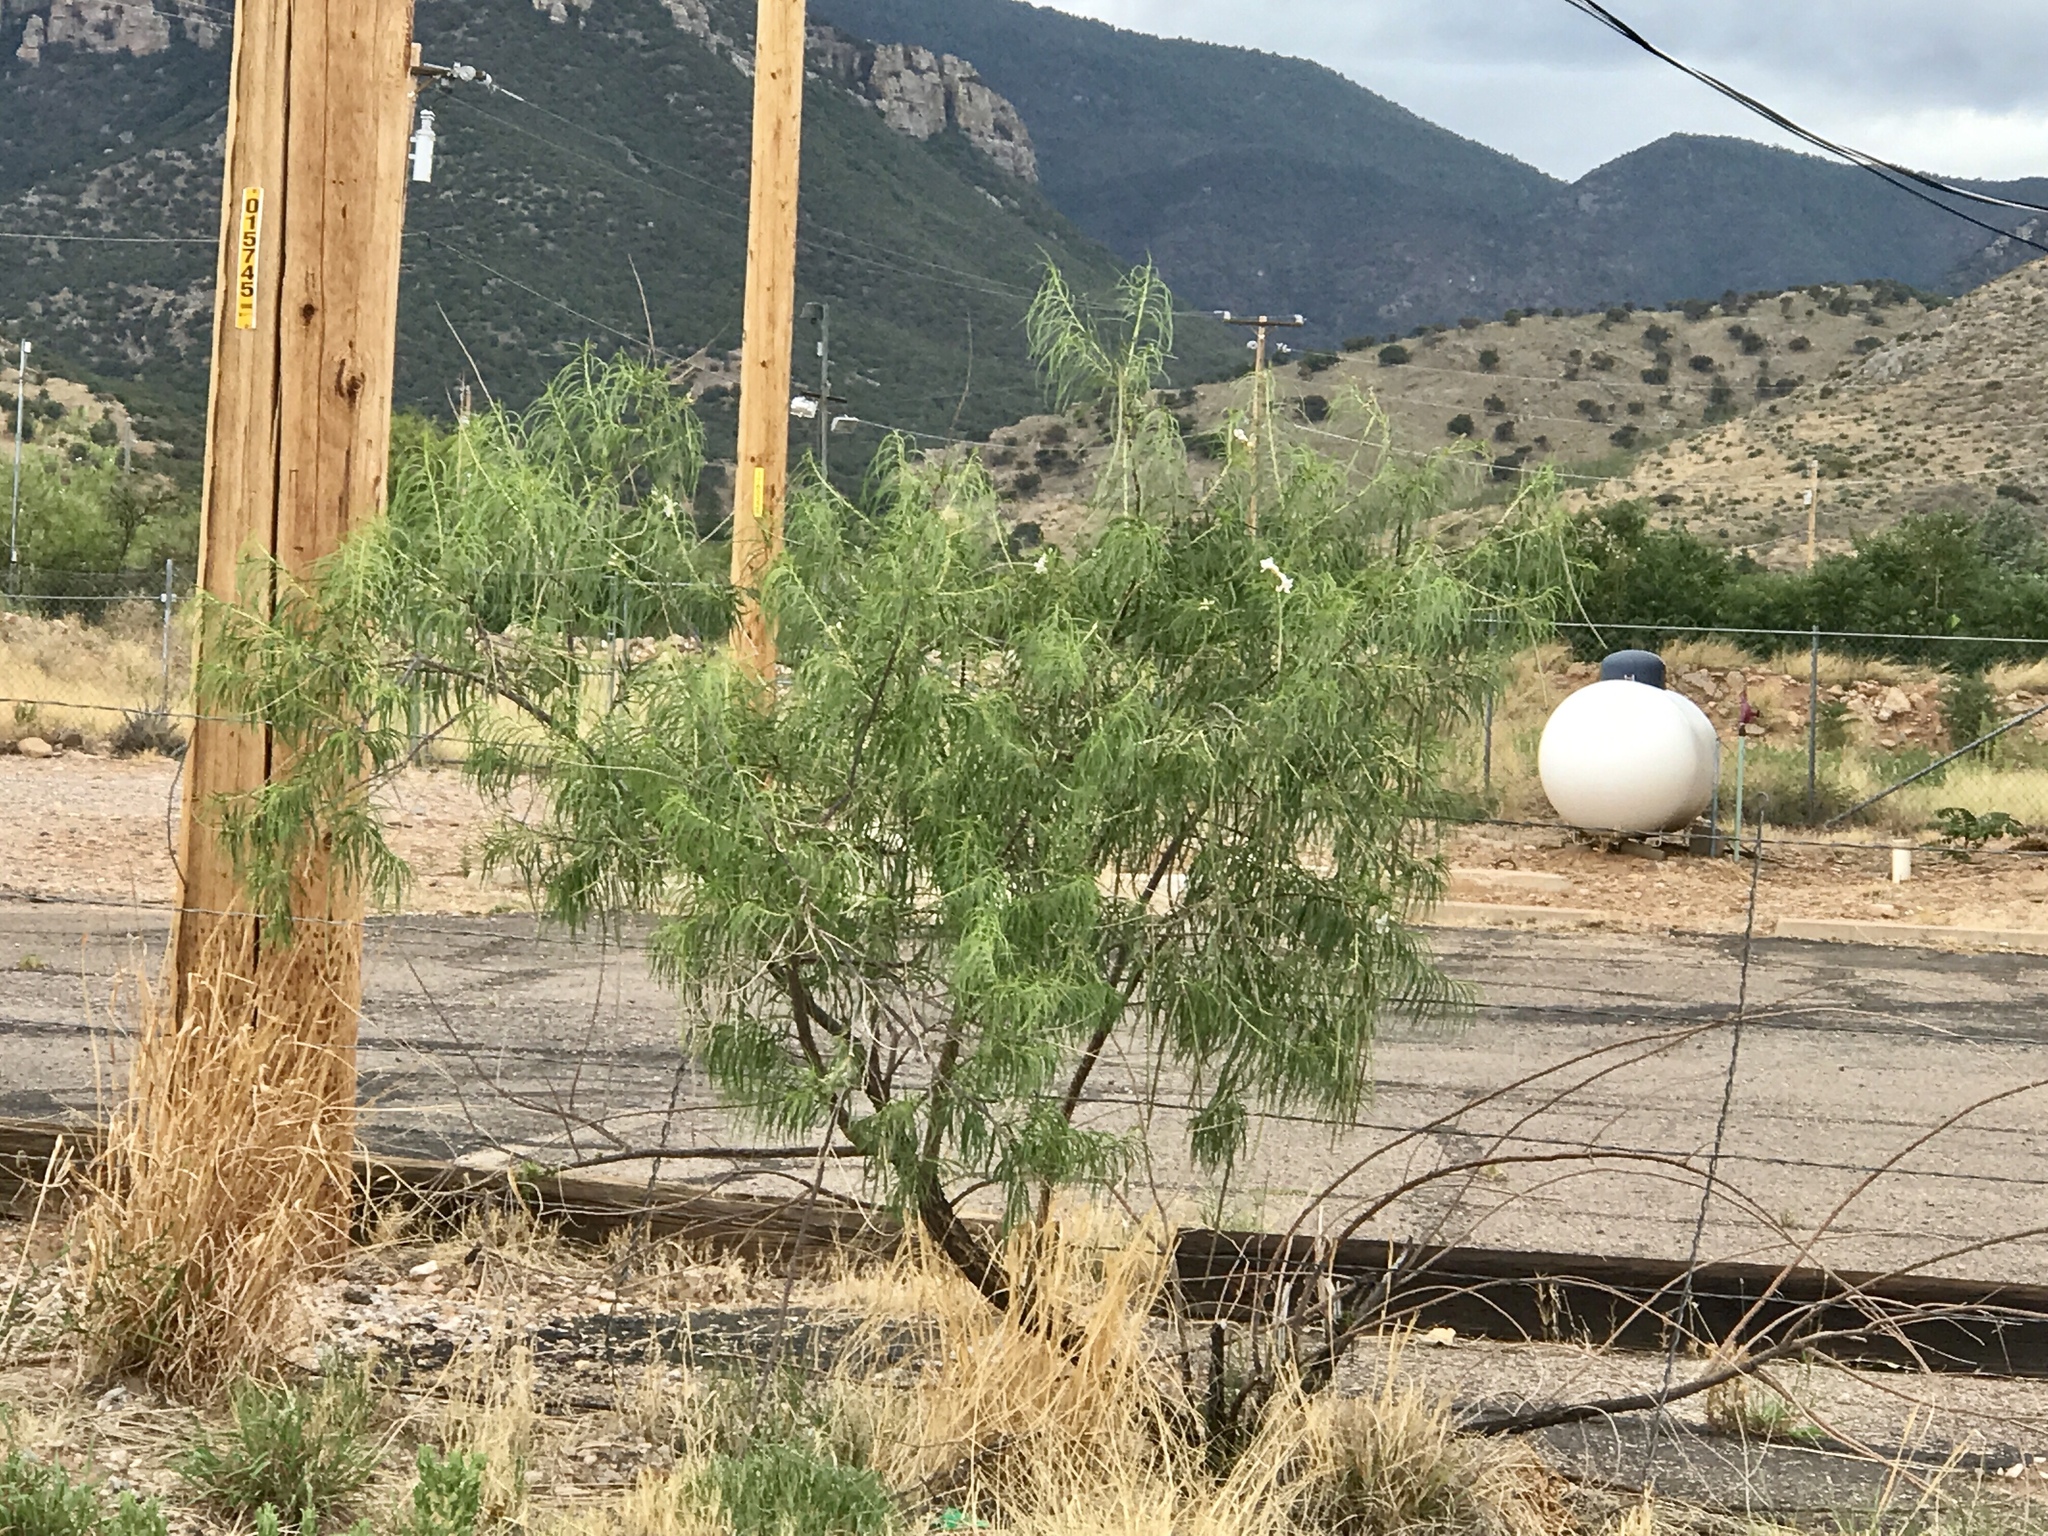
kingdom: Plantae
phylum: Tracheophyta
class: Magnoliopsida
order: Lamiales
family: Bignoniaceae
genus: Chilopsis
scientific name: Chilopsis linearis
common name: Desert-willow
